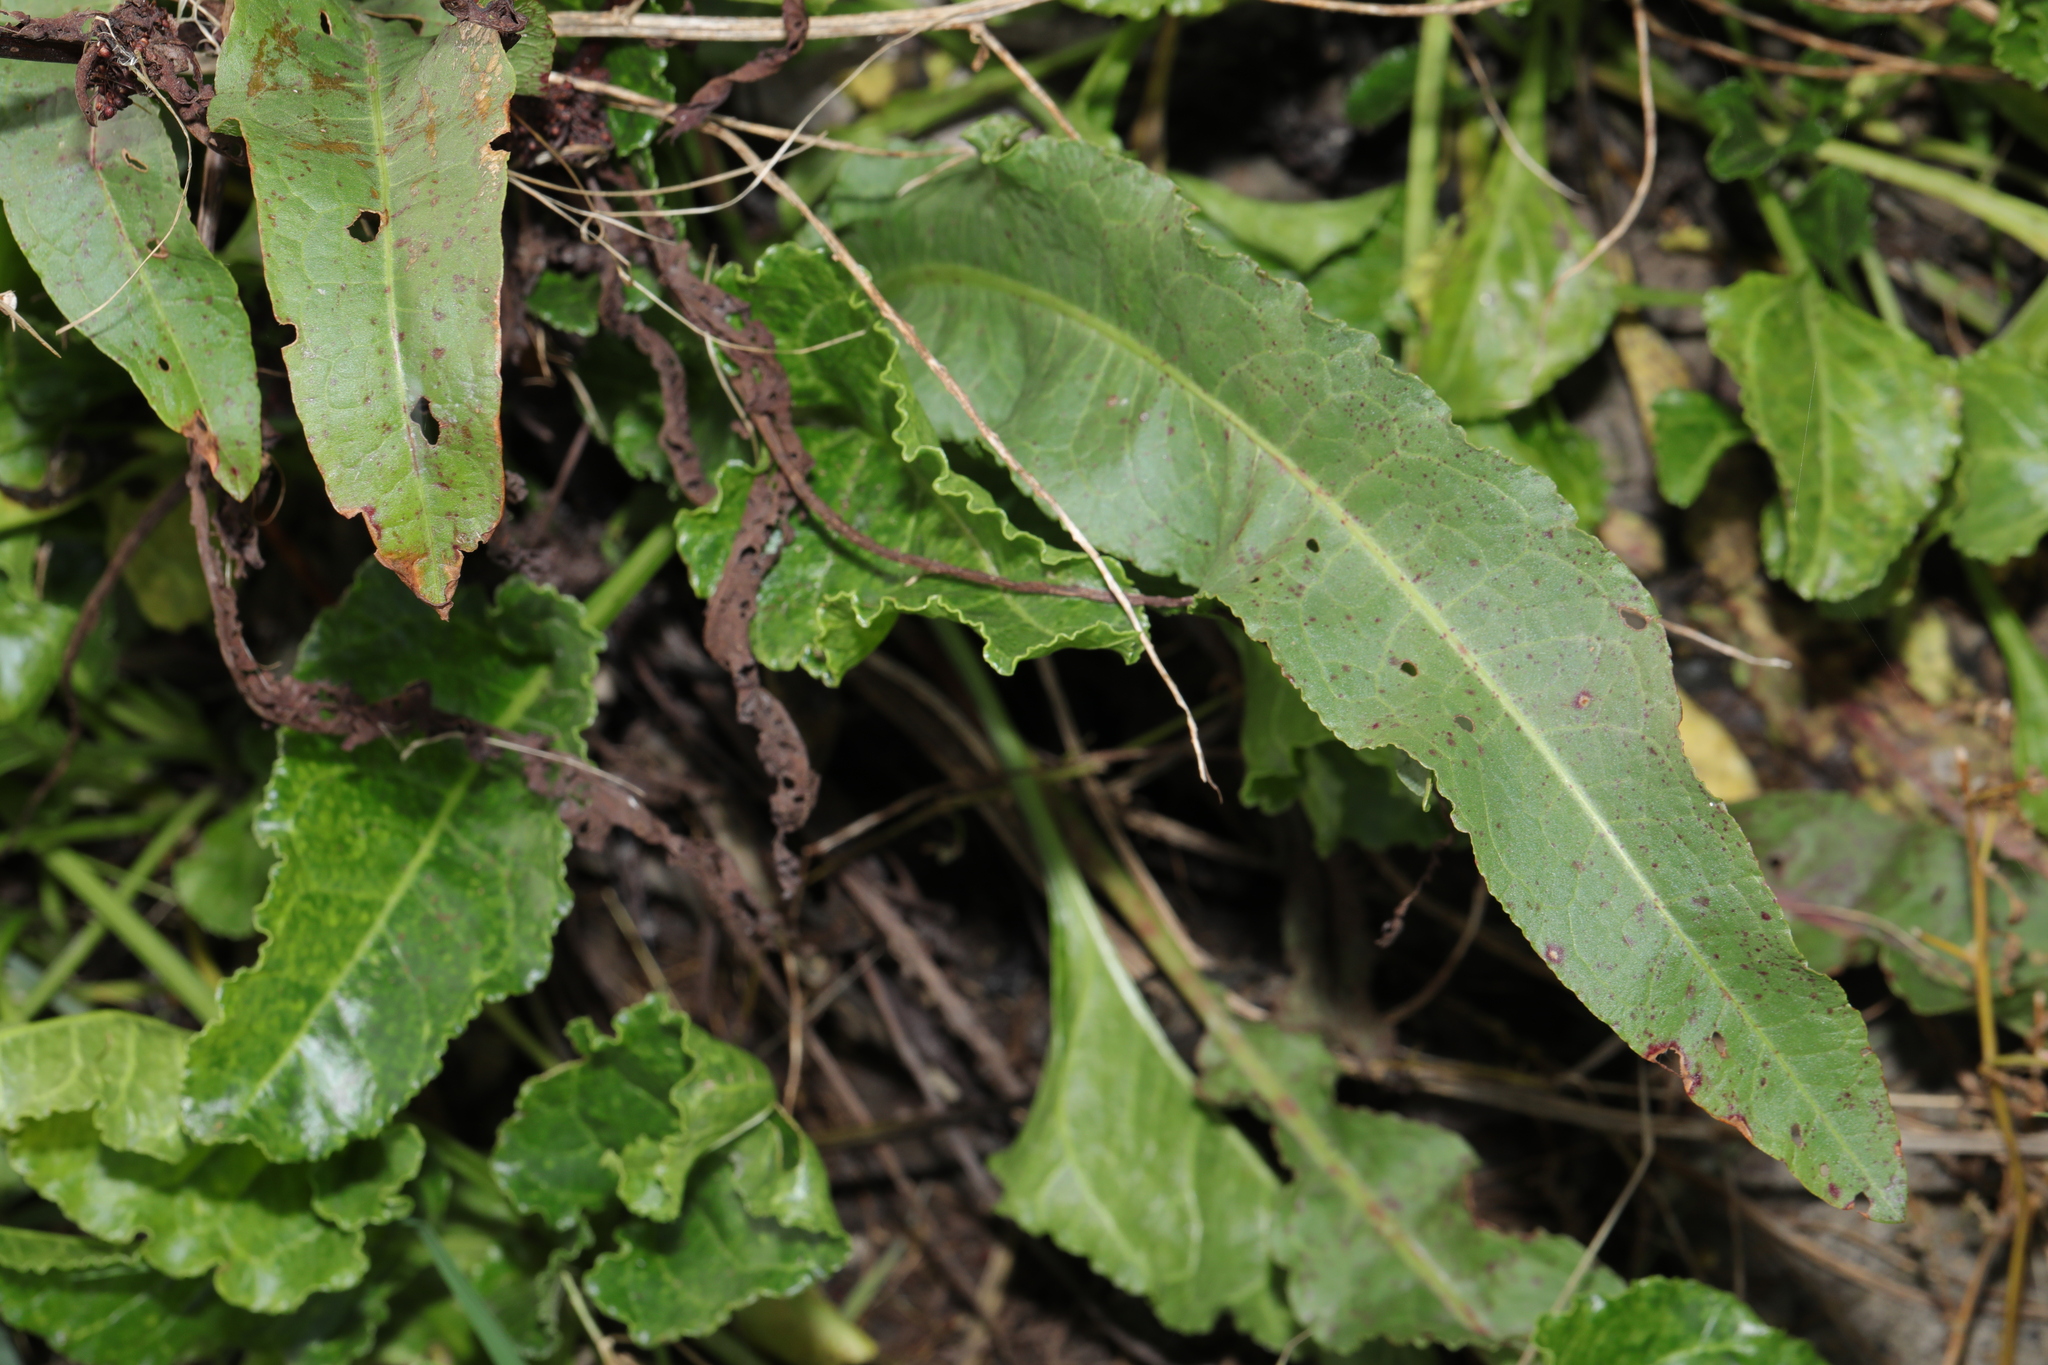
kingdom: Plantae
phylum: Tracheophyta
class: Magnoliopsida
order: Caryophyllales
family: Polygonaceae
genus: Rumex
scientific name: Rumex crispus
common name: Curled dock
